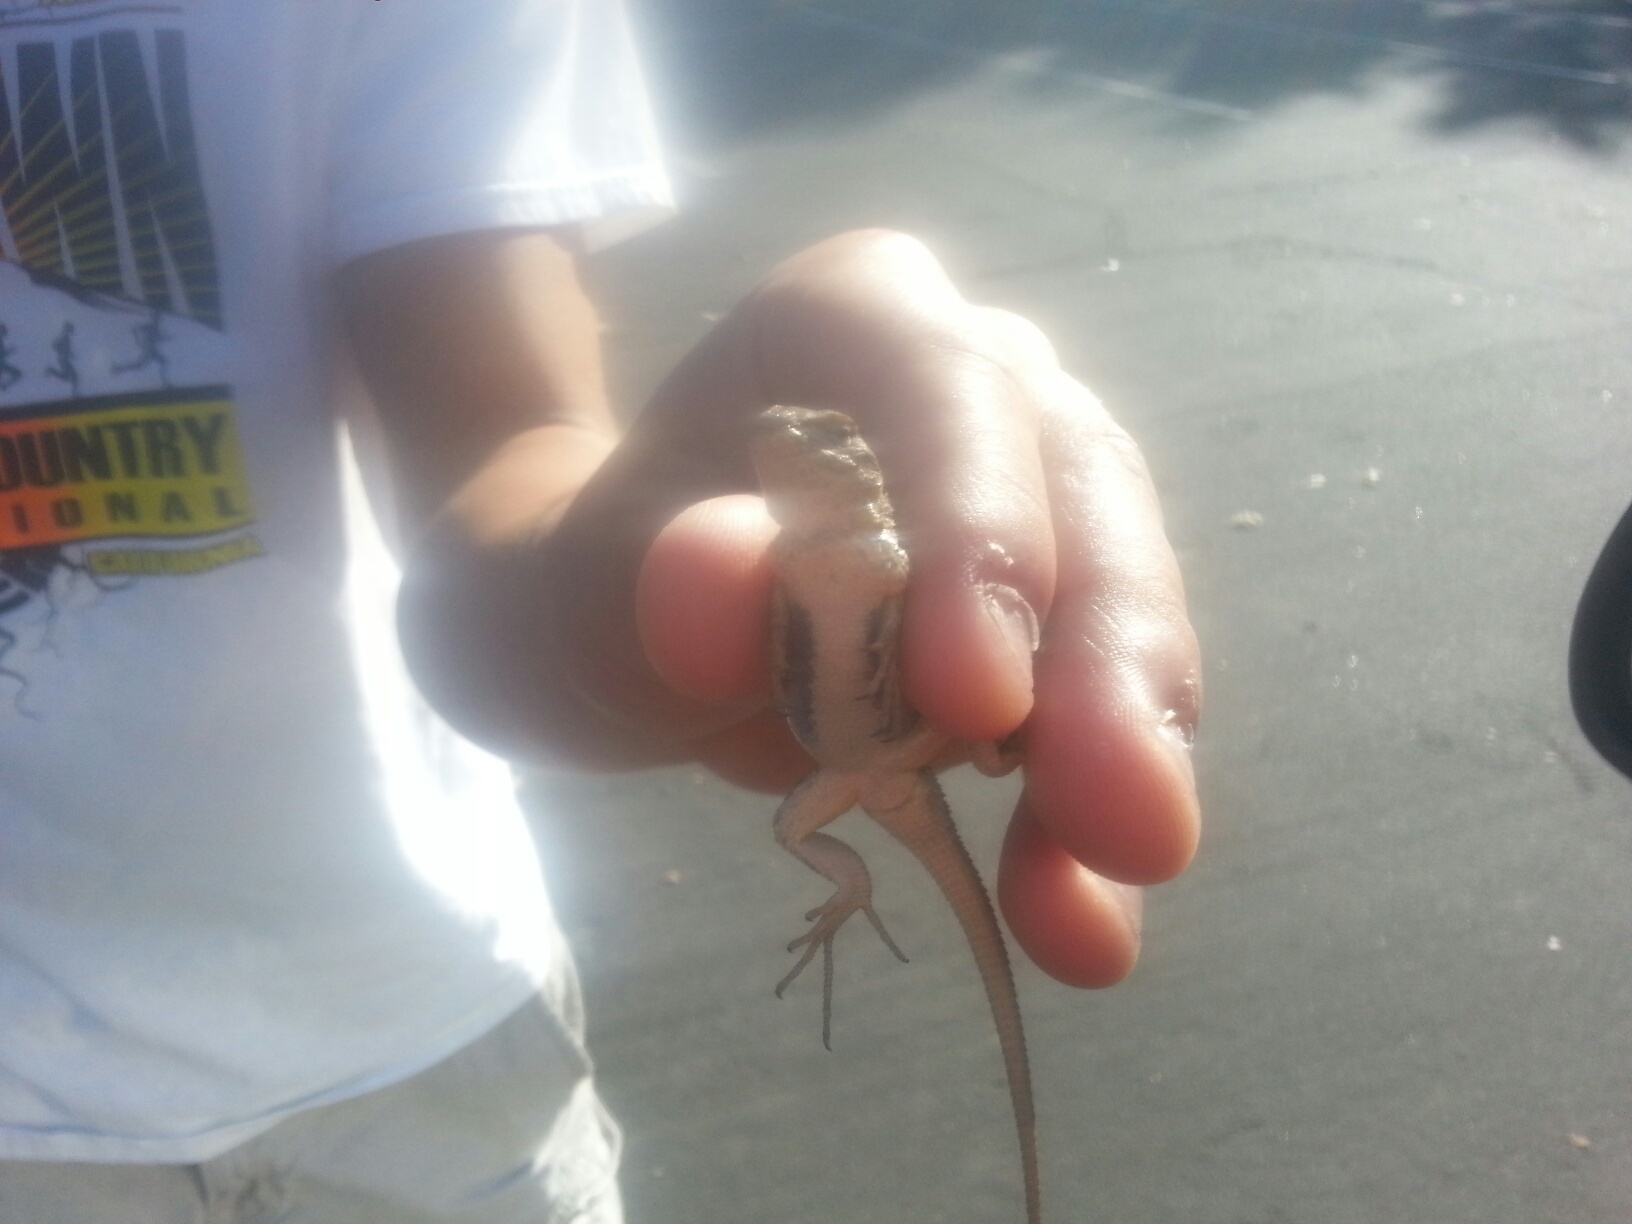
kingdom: Animalia
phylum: Chordata
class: Squamata
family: Phrynosomatidae
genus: Sceloporus
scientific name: Sceloporus occidentalis
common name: Western fence lizard
